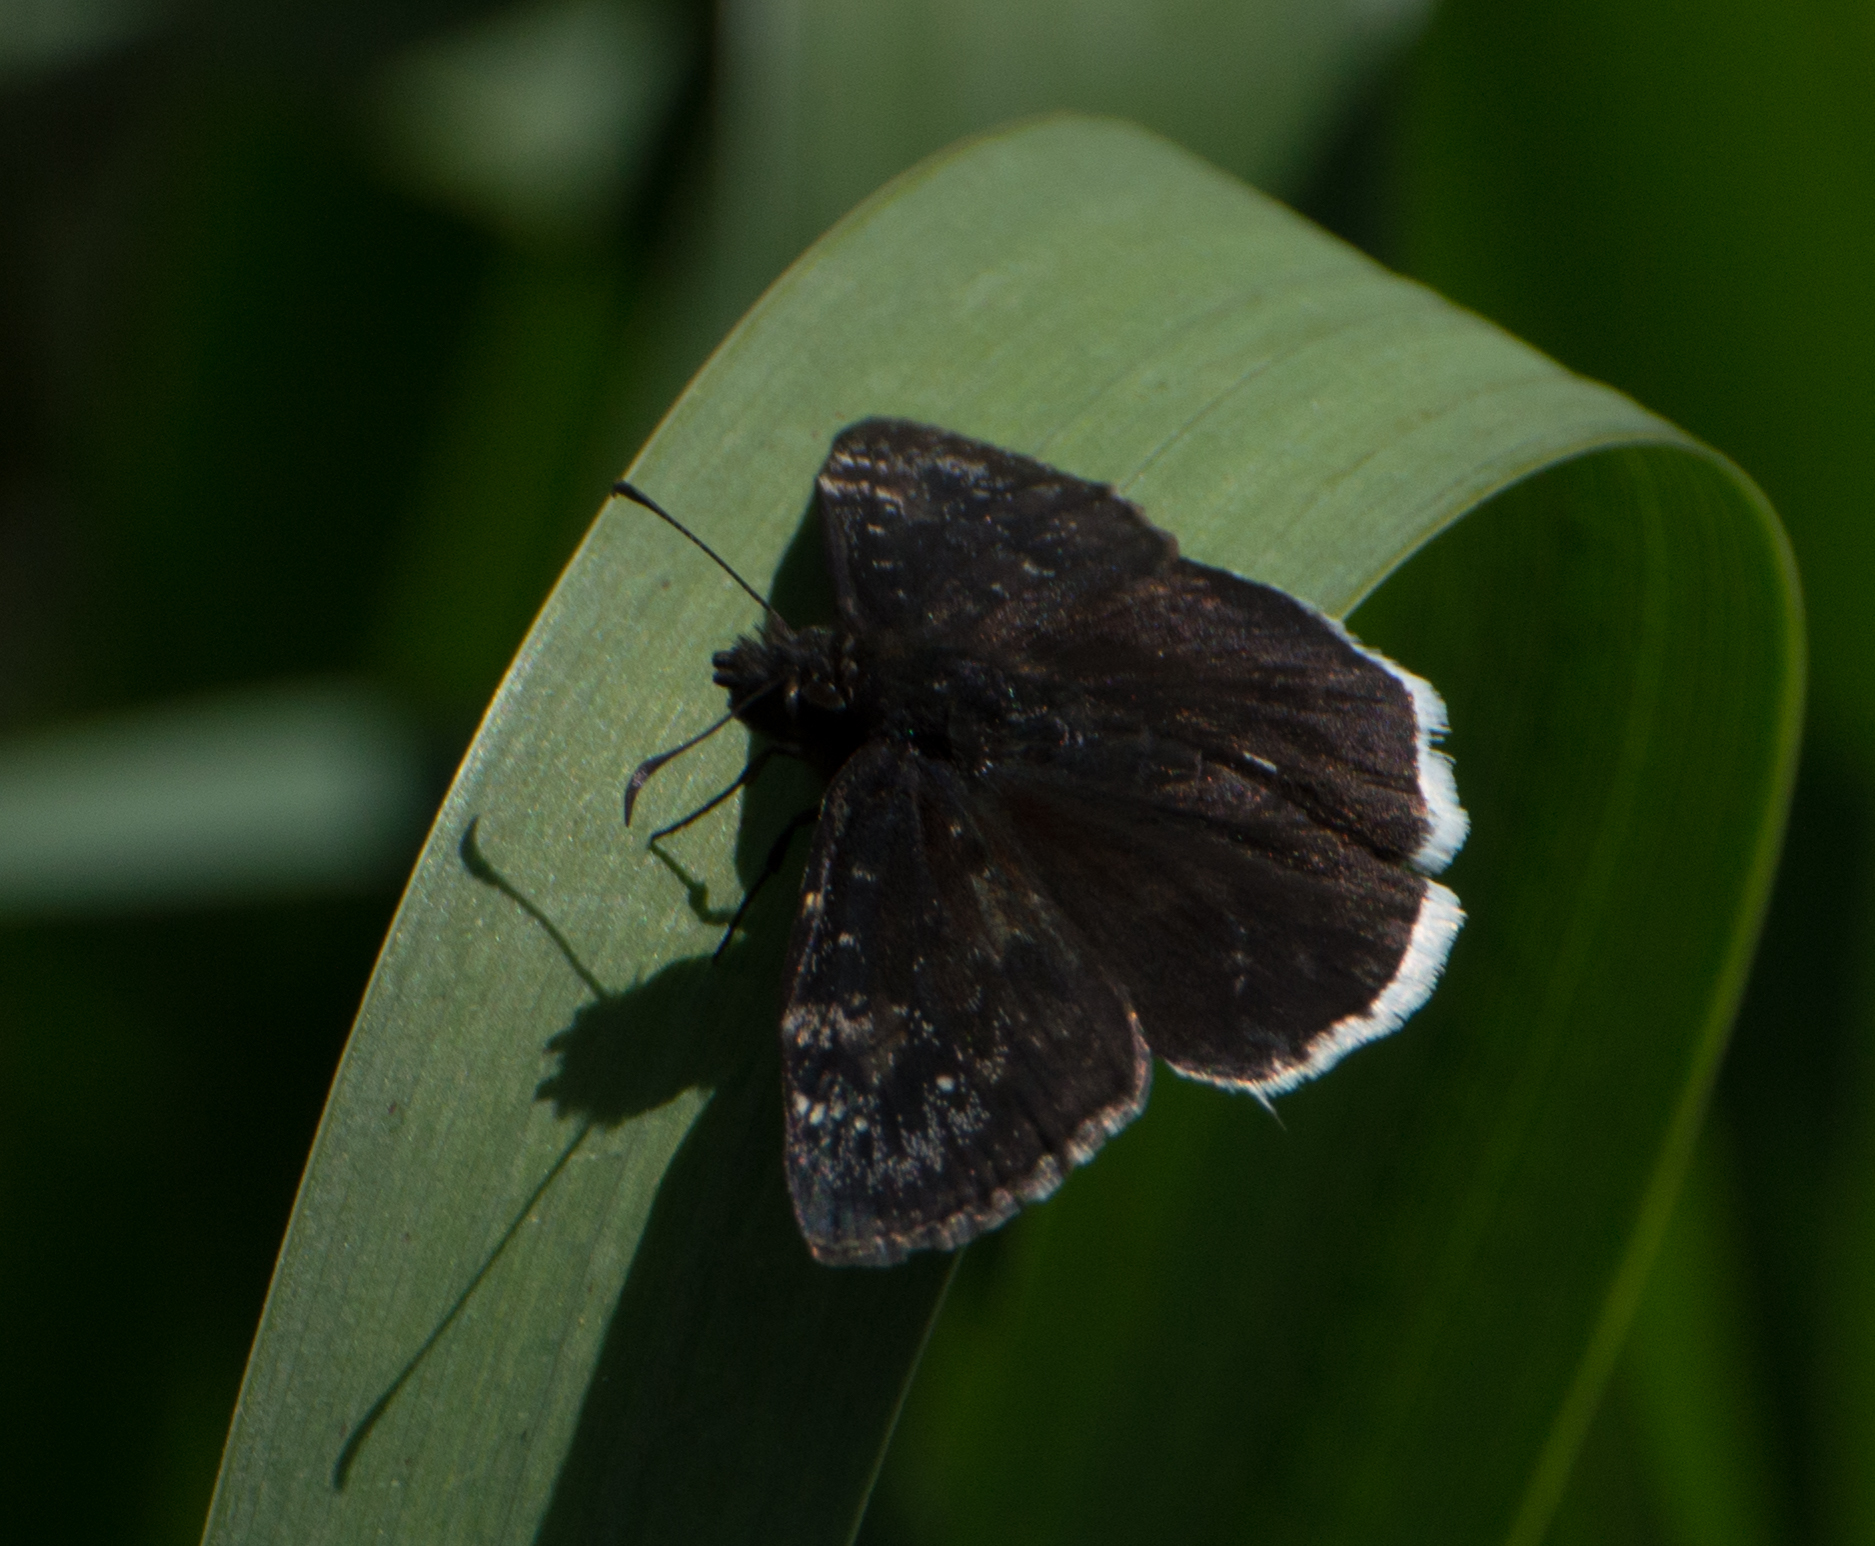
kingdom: Animalia
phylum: Arthropoda
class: Insecta
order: Lepidoptera
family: Hesperiidae
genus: Erynnis
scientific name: Erynnis funeralis
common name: Funereal duskywing
